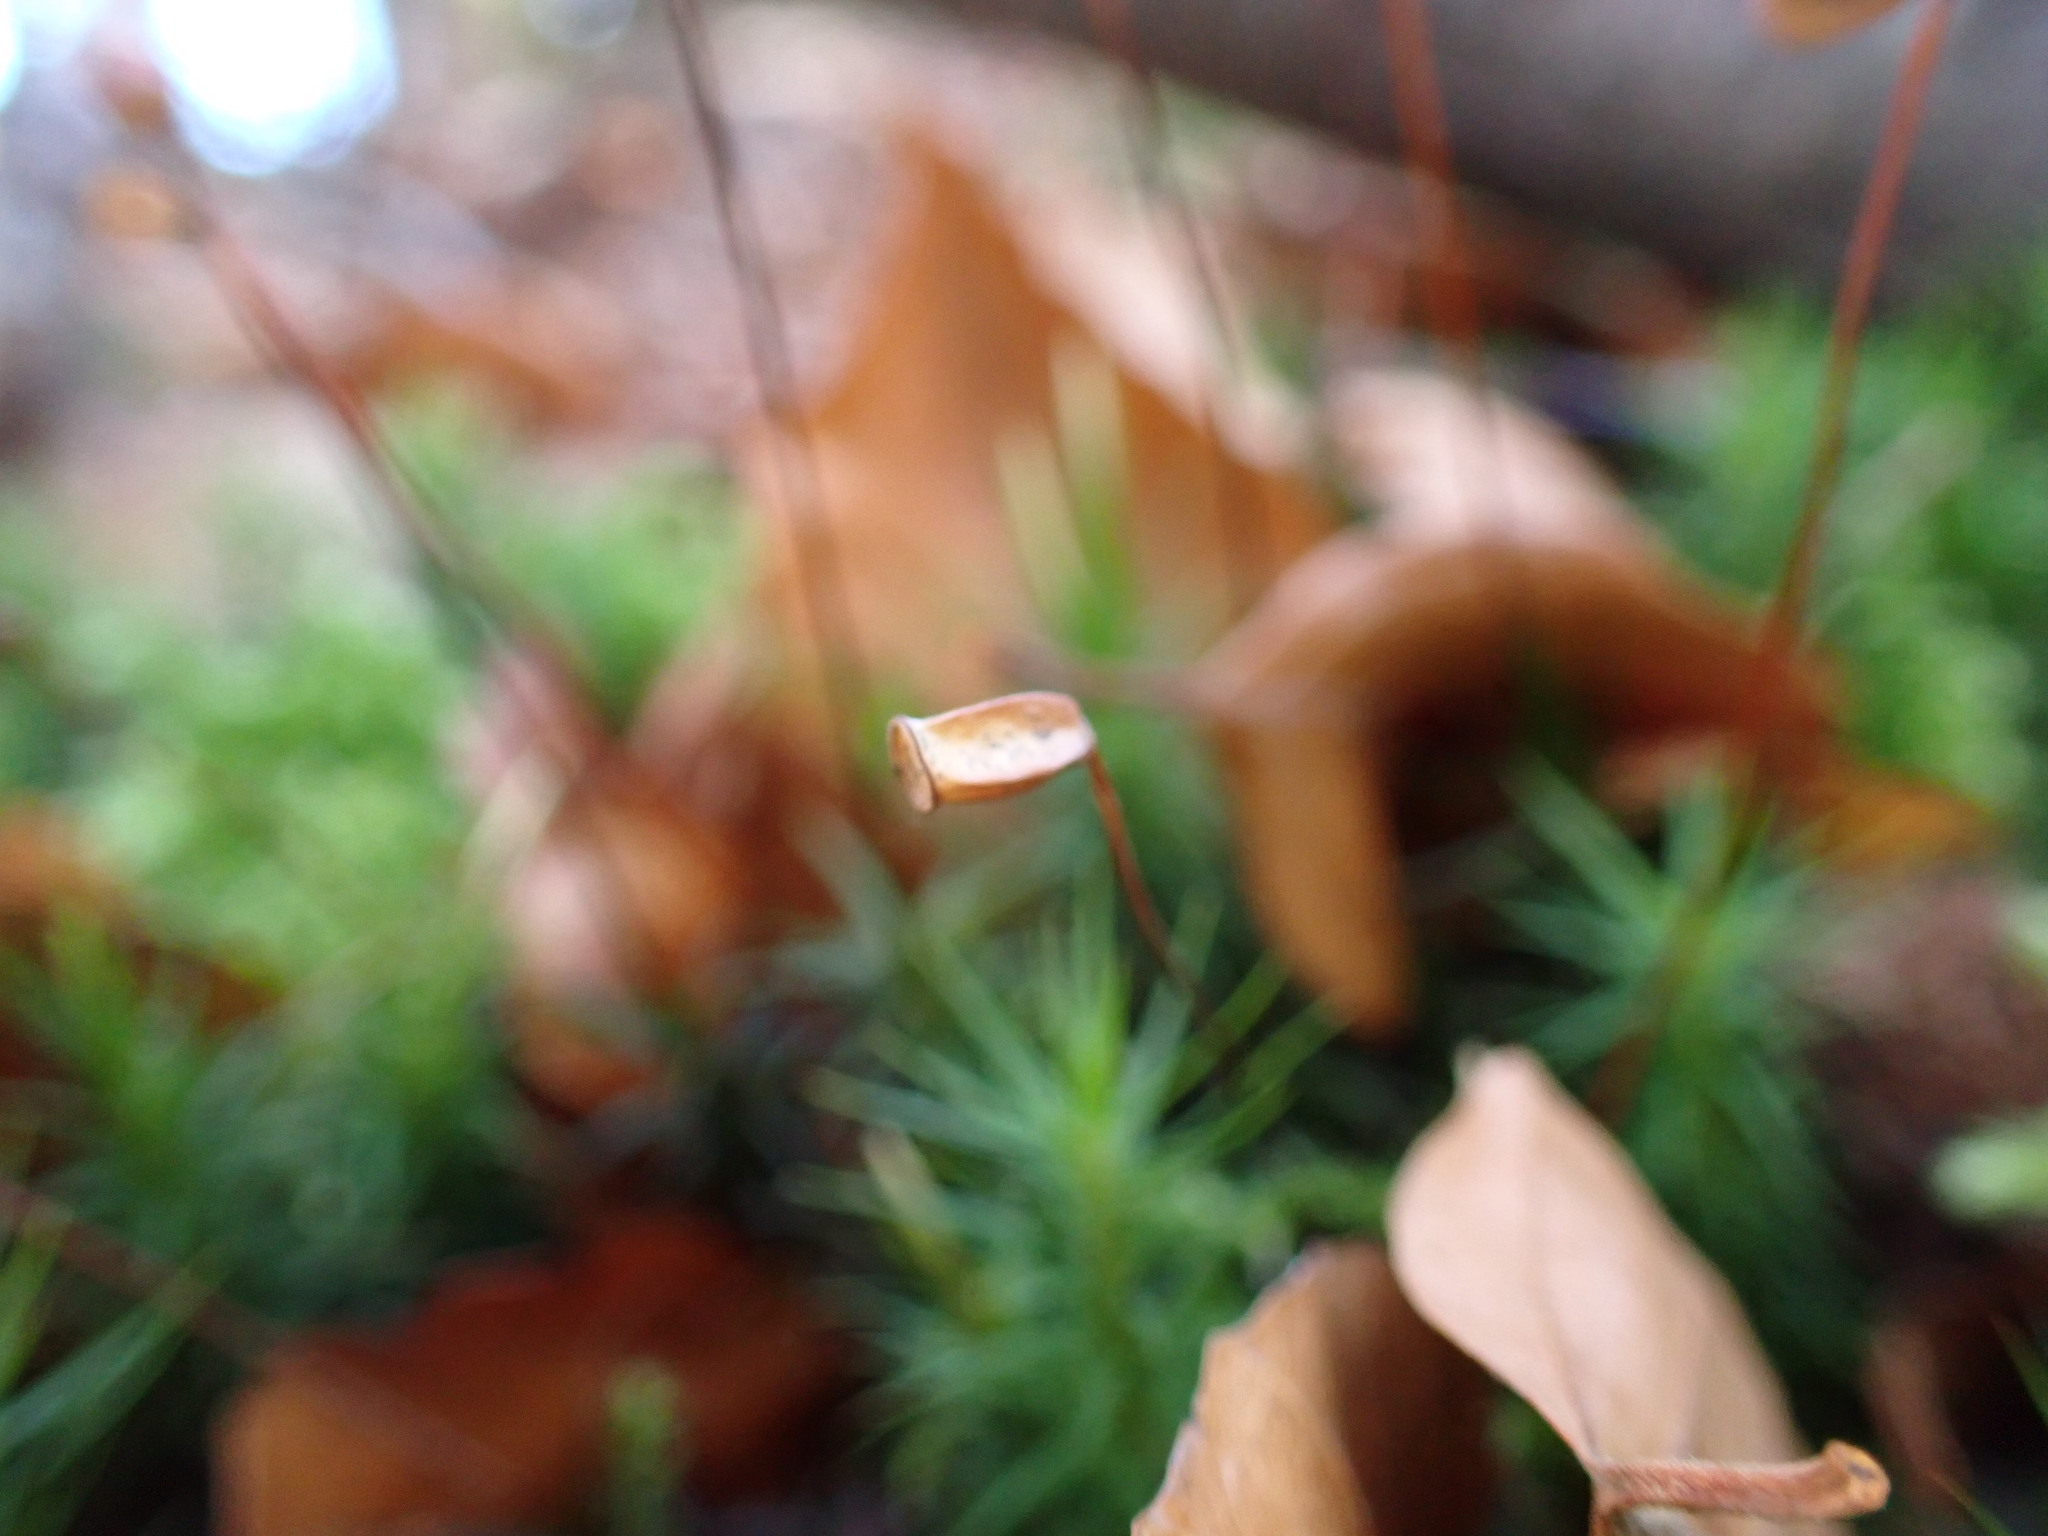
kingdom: Plantae
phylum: Bryophyta
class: Polytrichopsida
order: Polytrichales
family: Polytrichaceae
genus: Polytrichum
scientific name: Polytrichum formosum
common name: Bank haircap moss
